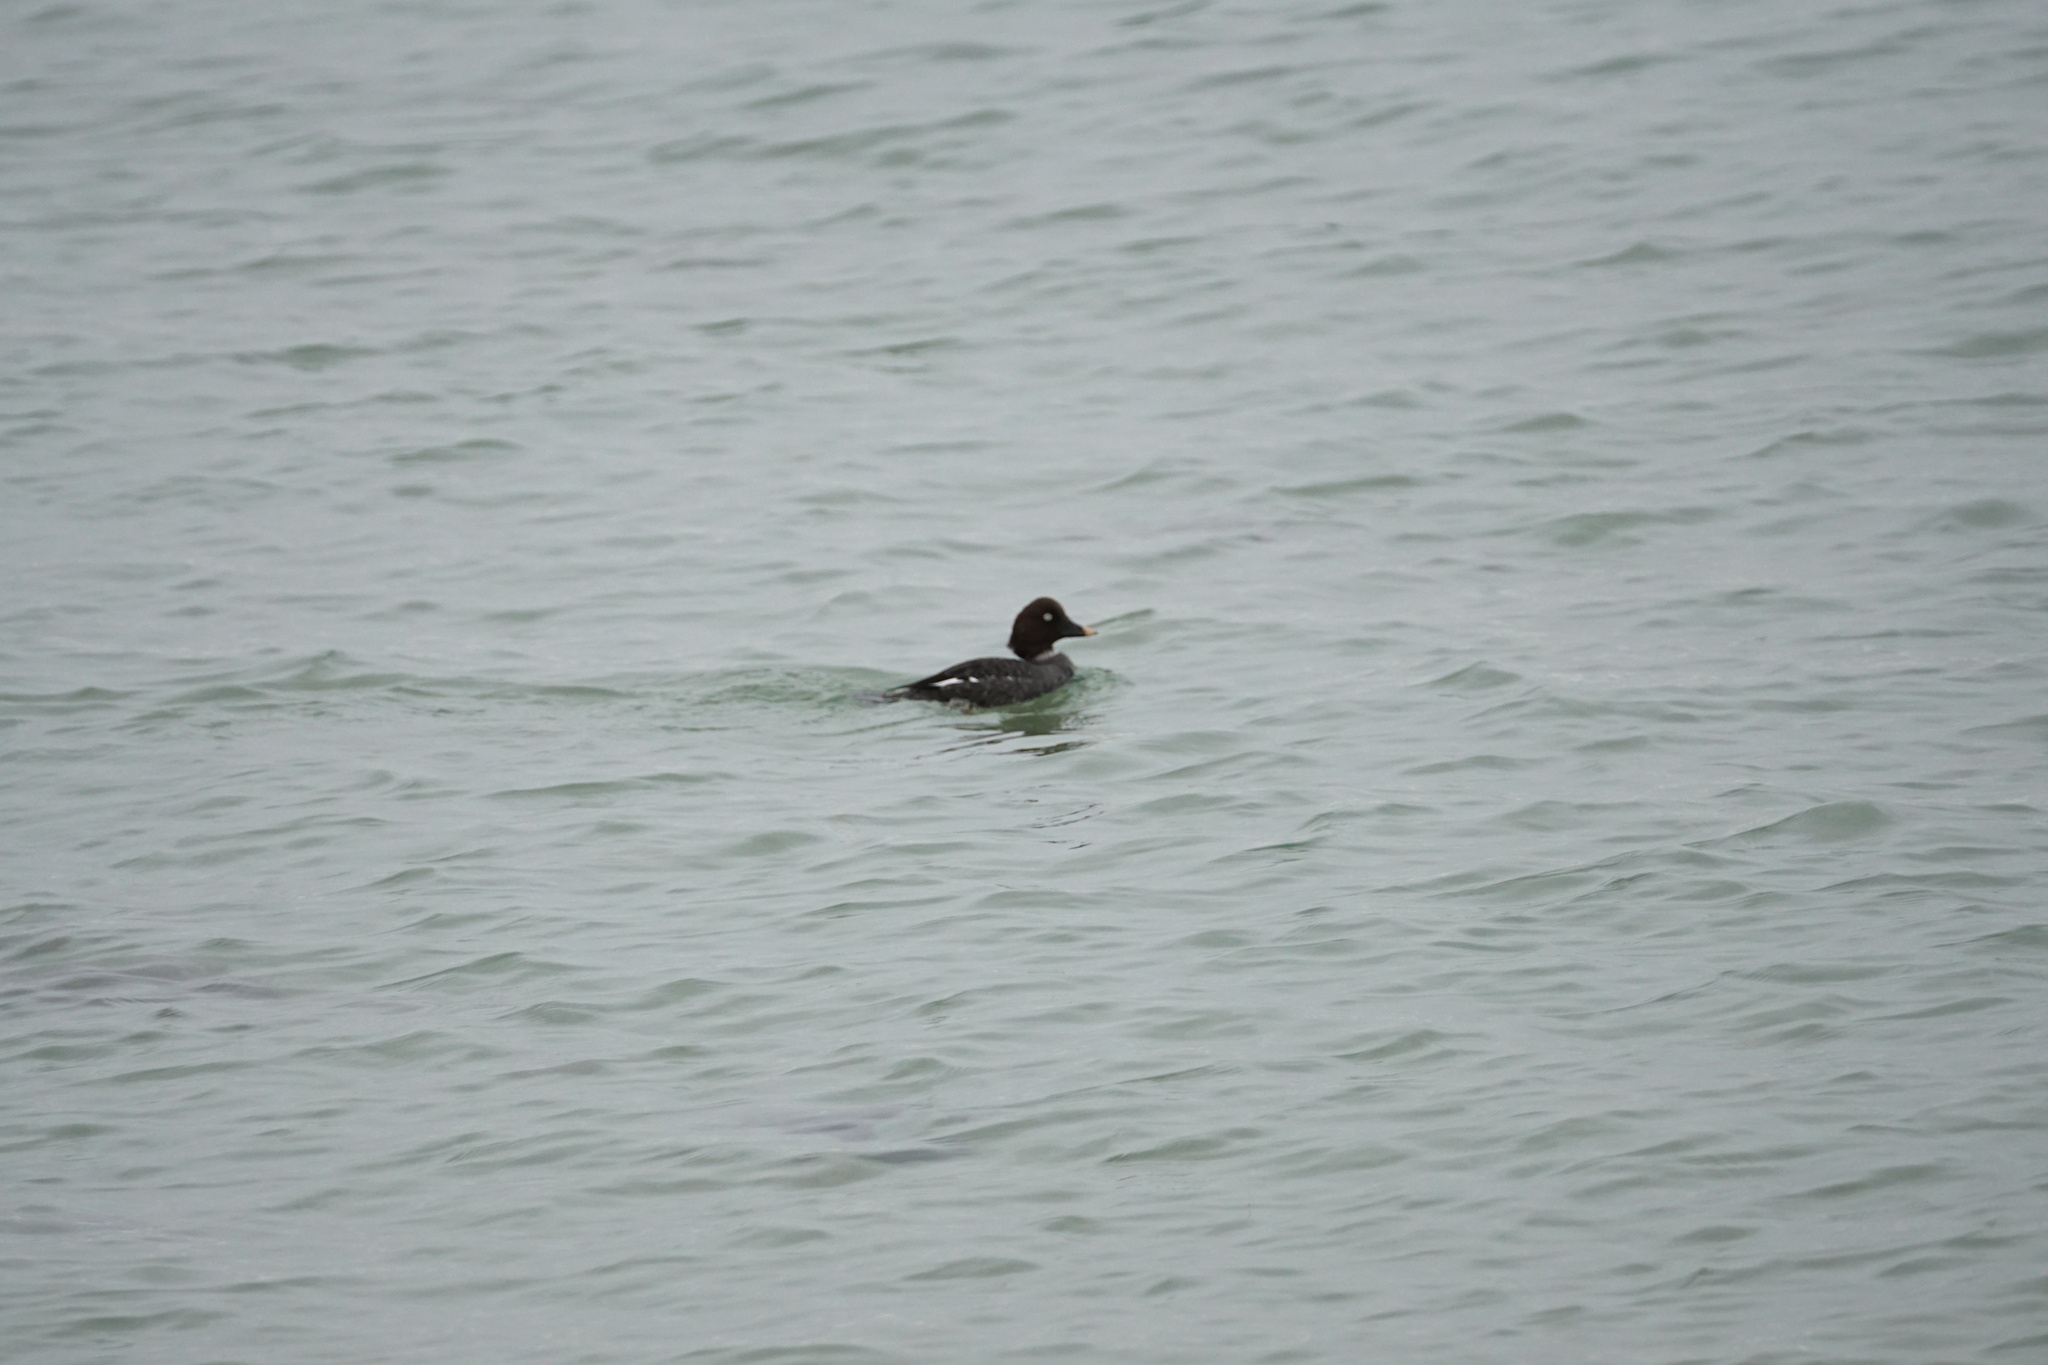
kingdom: Animalia
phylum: Chordata
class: Aves
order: Anseriformes
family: Anatidae
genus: Bucephala
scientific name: Bucephala clangula
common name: Common goldeneye
